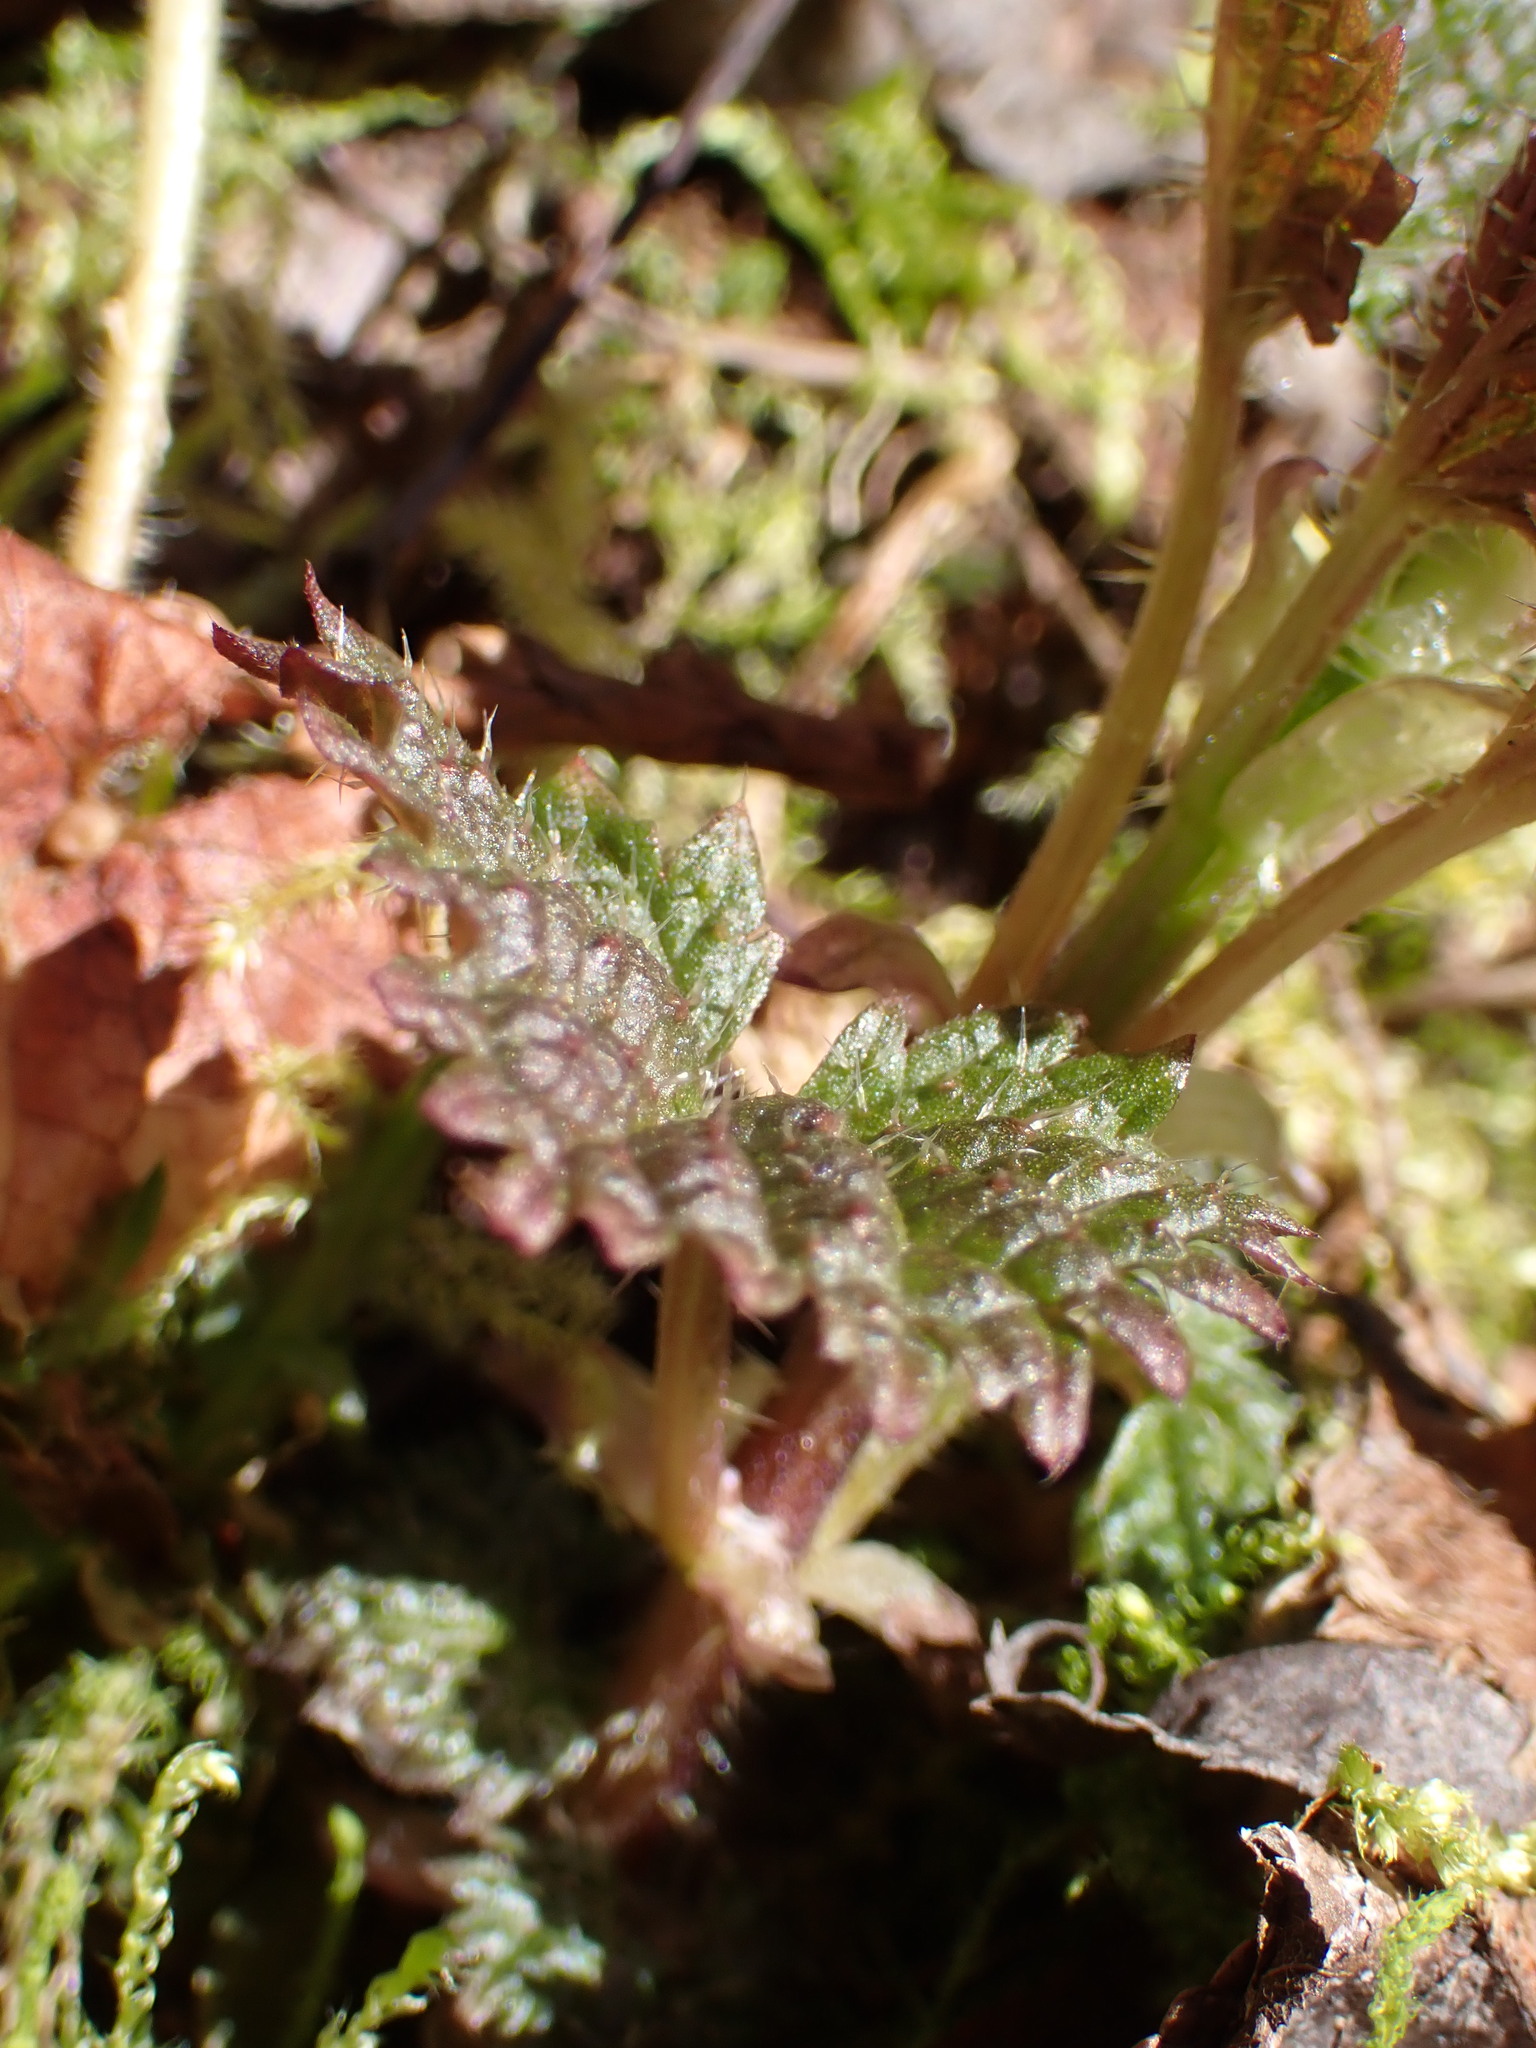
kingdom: Plantae
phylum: Tracheophyta
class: Magnoliopsida
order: Rosales
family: Urticaceae
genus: Urtica
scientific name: Urtica gracilis
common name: Slender stinging nettle
